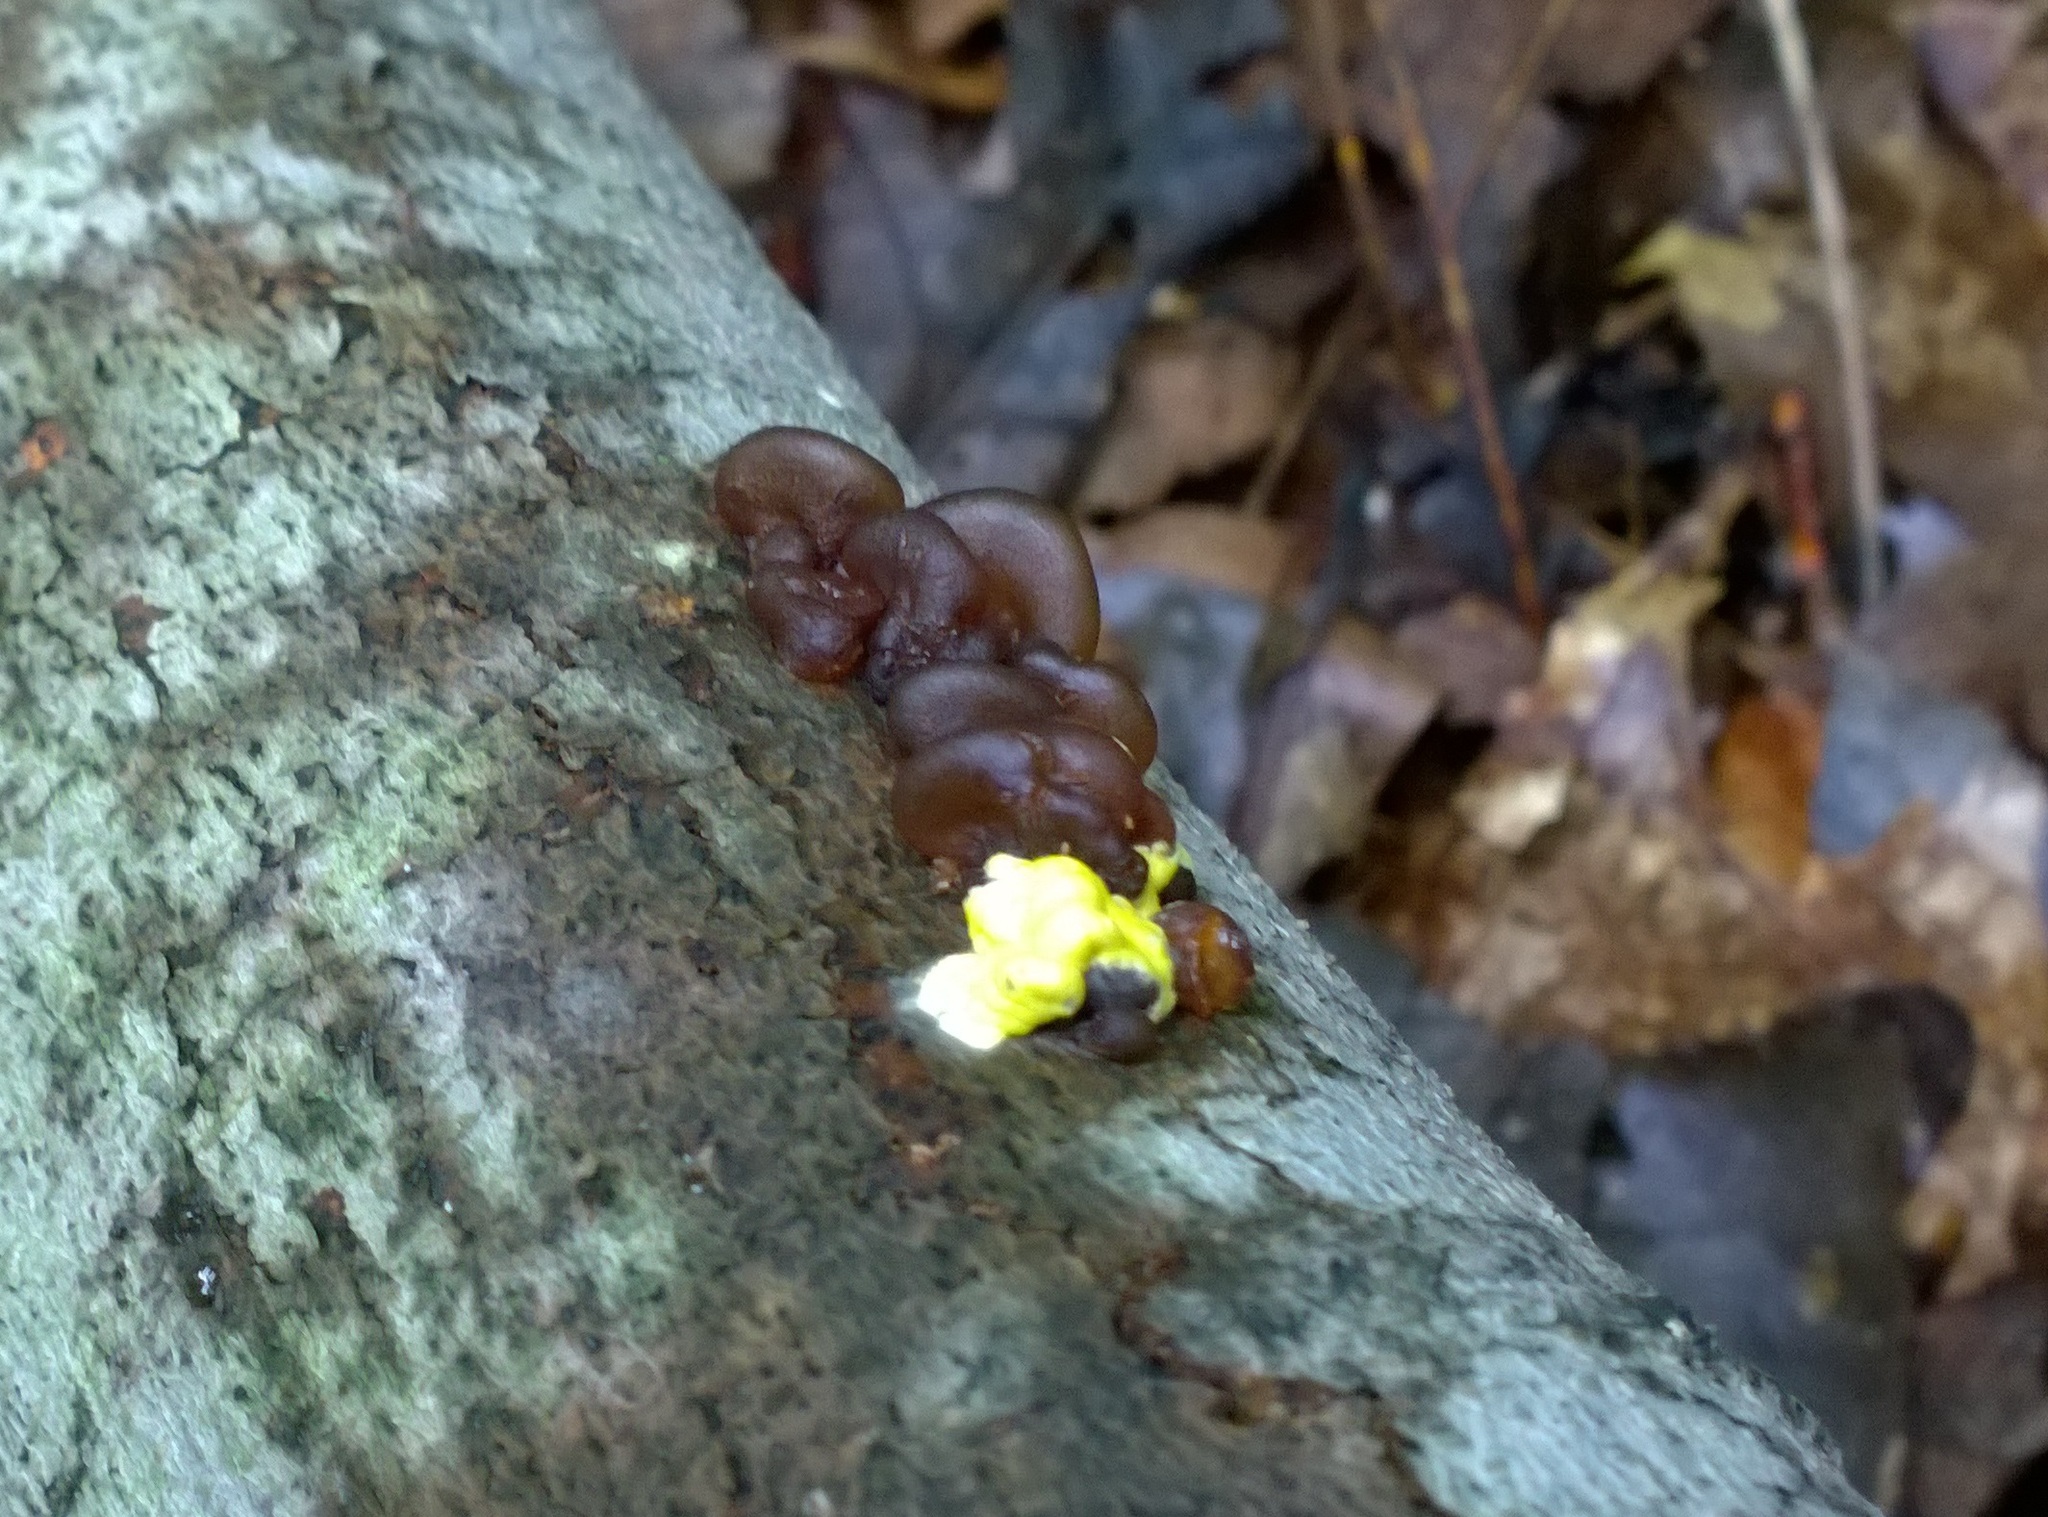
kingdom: Fungi
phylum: Ascomycota
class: Sordariomycetes
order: Hypocreales
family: Hypocreaceae
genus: Trichoderma
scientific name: Trichoderma sulphureum
